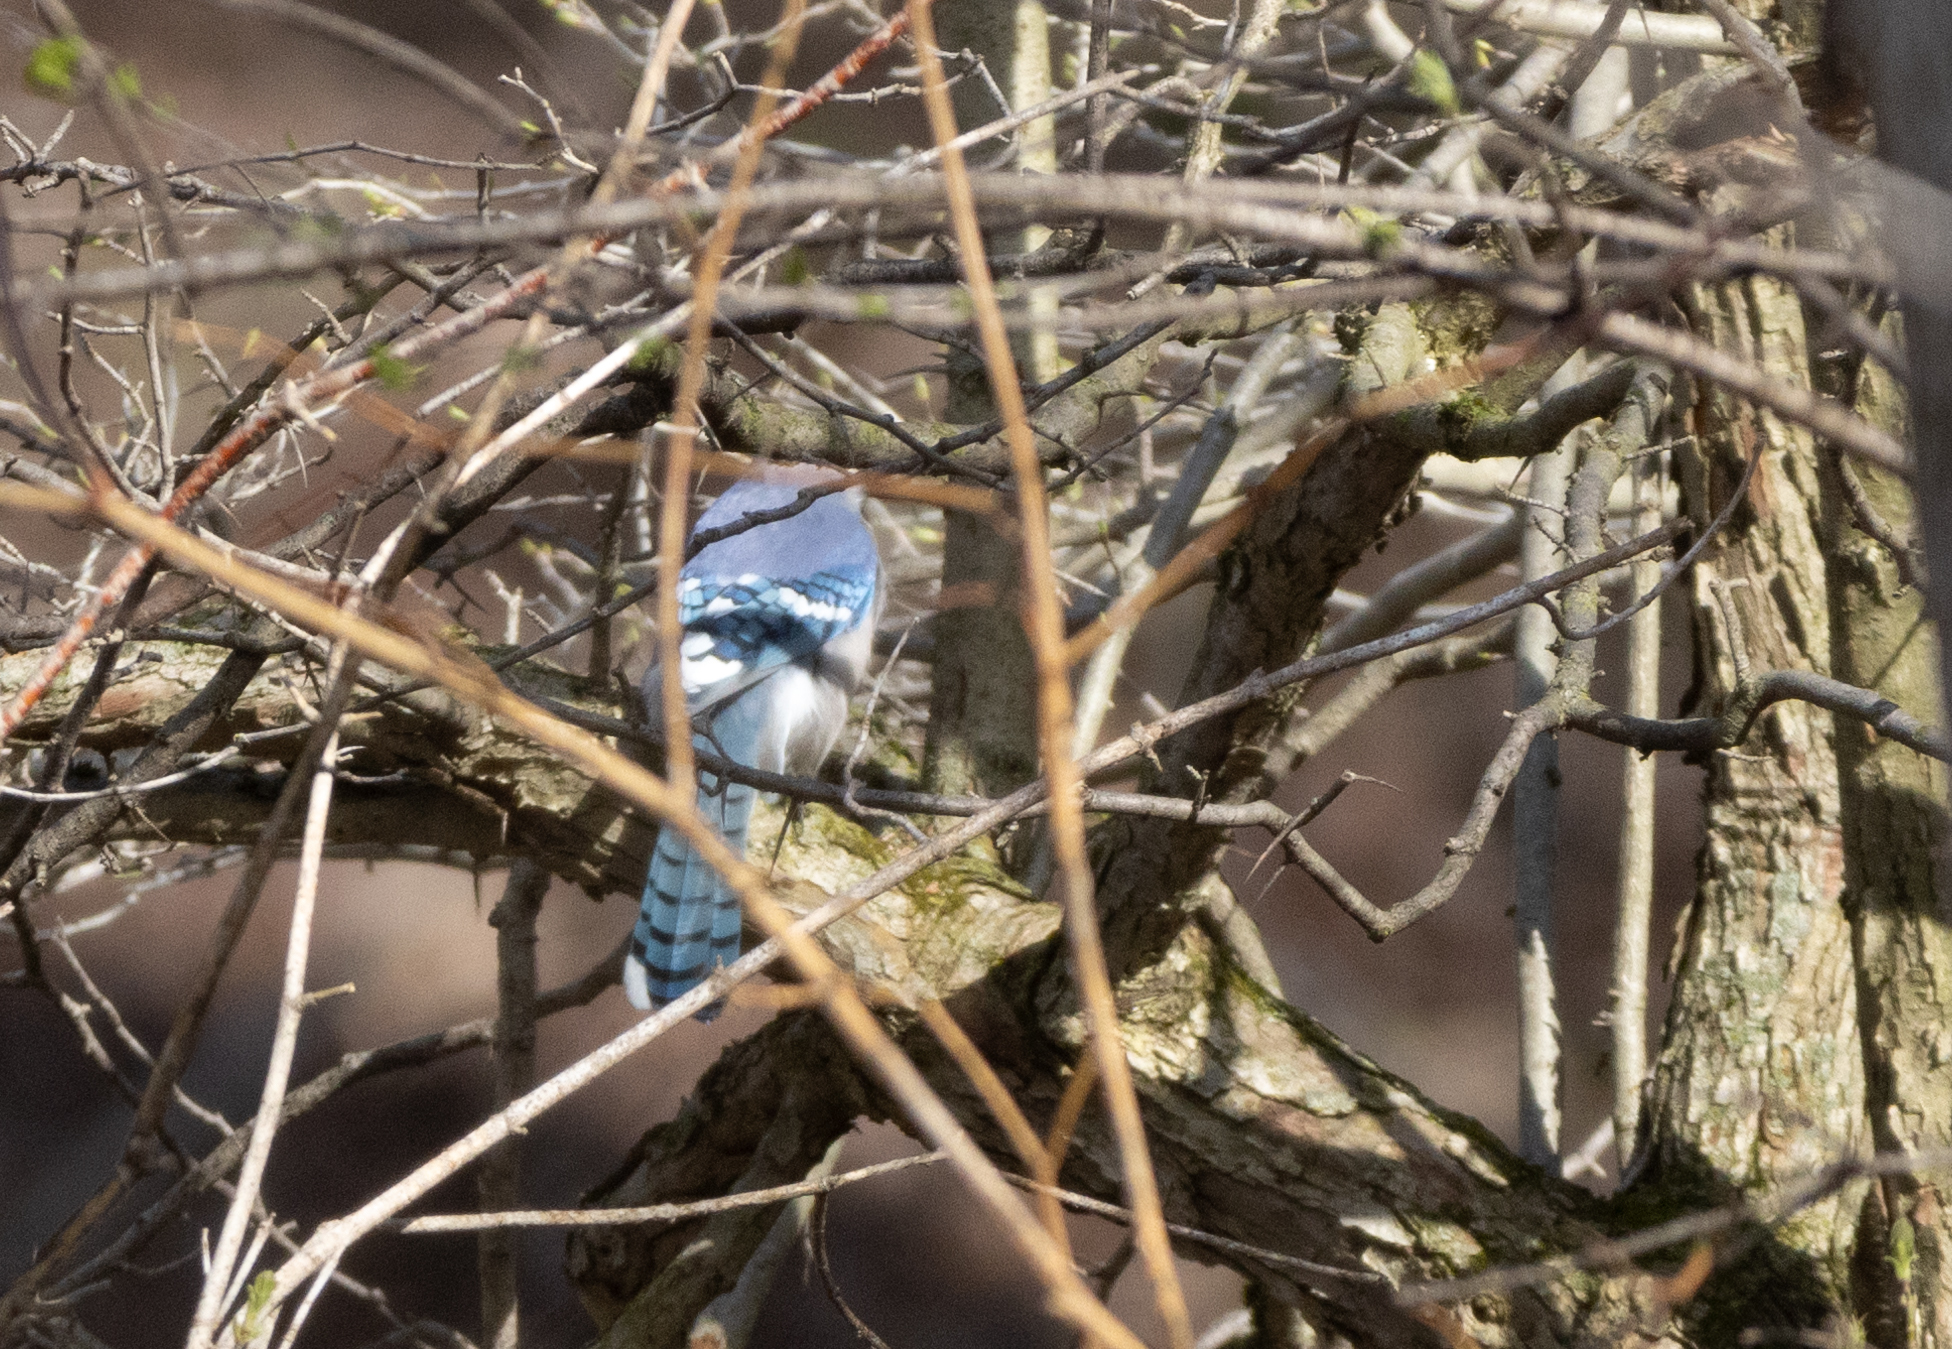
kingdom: Animalia
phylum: Chordata
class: Aves
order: Passeriformes
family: Corvidae
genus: Cyanocitta
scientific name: Cyanocitta cristata
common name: Blue jay
